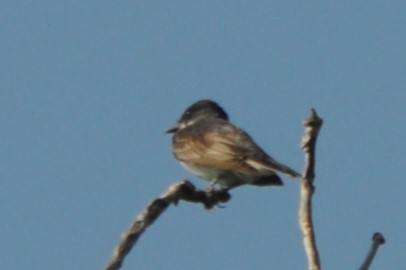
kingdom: Animalia
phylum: Chordata
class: Aves
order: Passeriformes
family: Tyrannidae
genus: Tyrannus
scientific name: Tyrannus tyrannus
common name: Eastern kingbird
